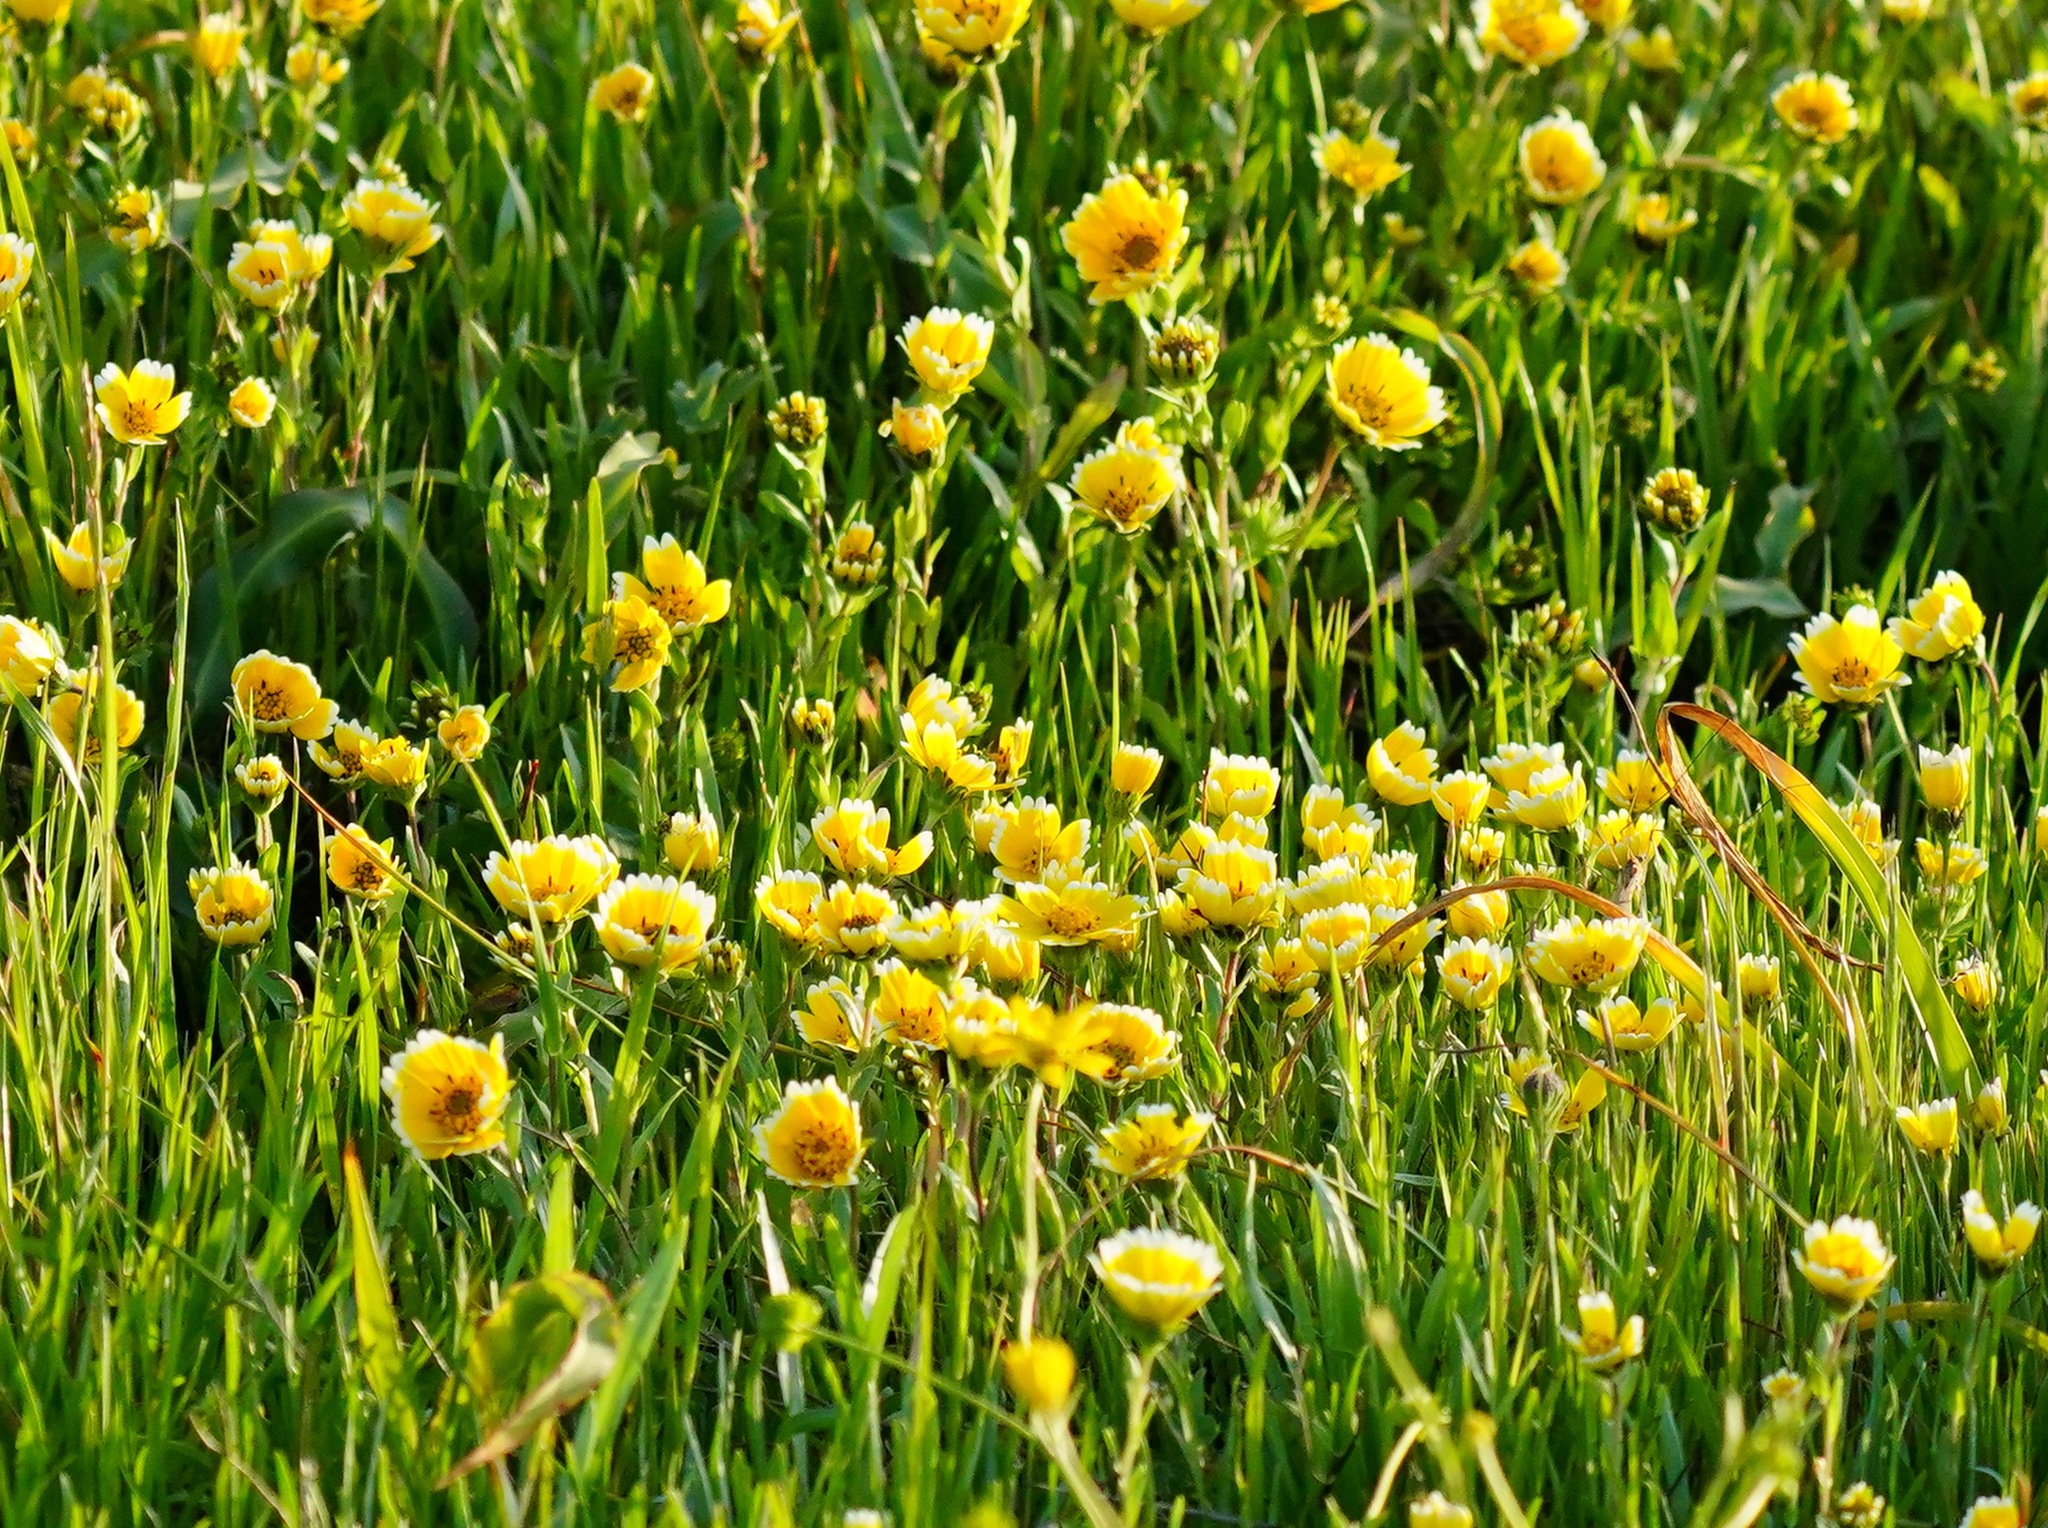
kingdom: Plantae
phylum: Tracheophyta
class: Magnoliopsida
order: Asterales
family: Asteraceae
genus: Layia
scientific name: Layia chrysanthemoides
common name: Smooth layia
